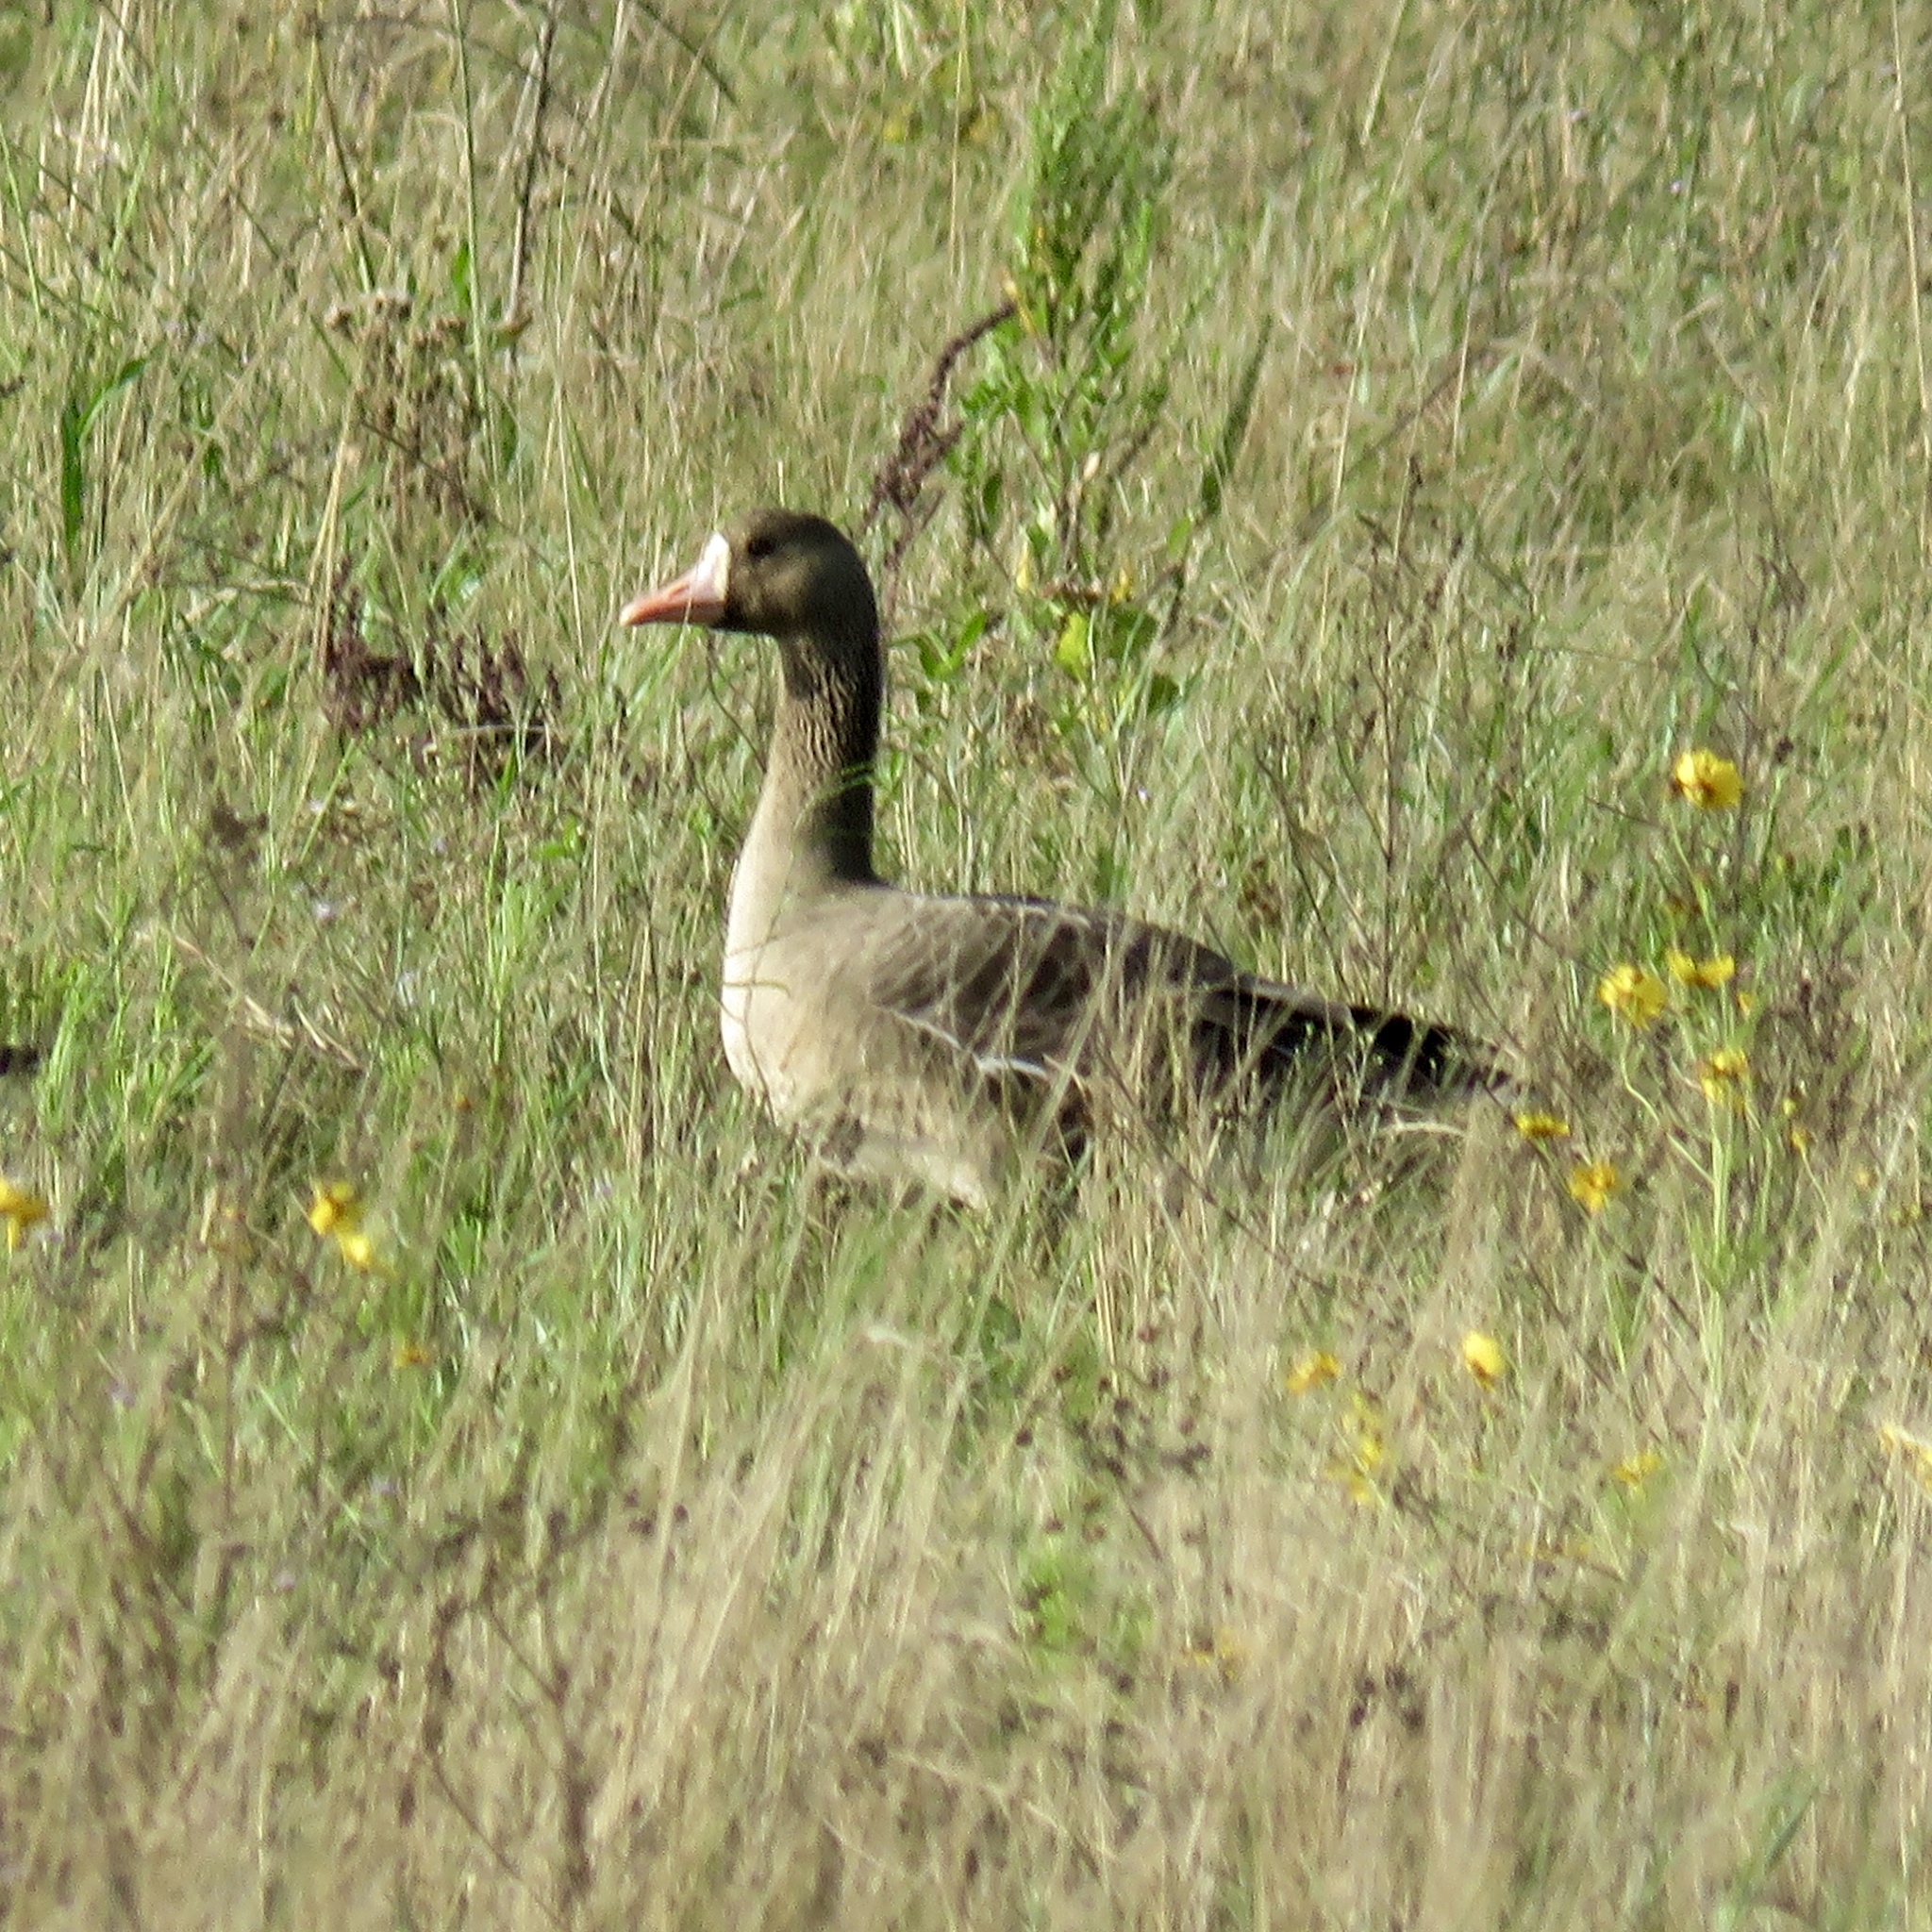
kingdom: Animalia
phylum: Chordata
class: Aves
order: Anseriformes
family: Anatidae
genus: Anser
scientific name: Anser albifrons
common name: Greater white-fronted goose
